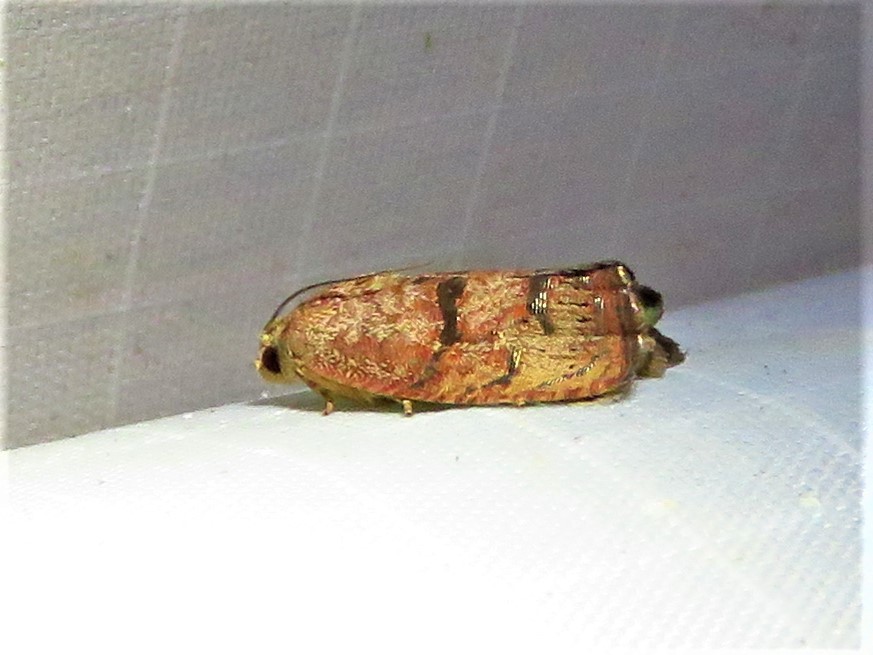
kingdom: Animalia
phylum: Arthropoda
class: Insecta
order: Lepidoptera
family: Tortricidae
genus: Cydia
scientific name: Cydia latiferreana
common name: Filbertworm moth
